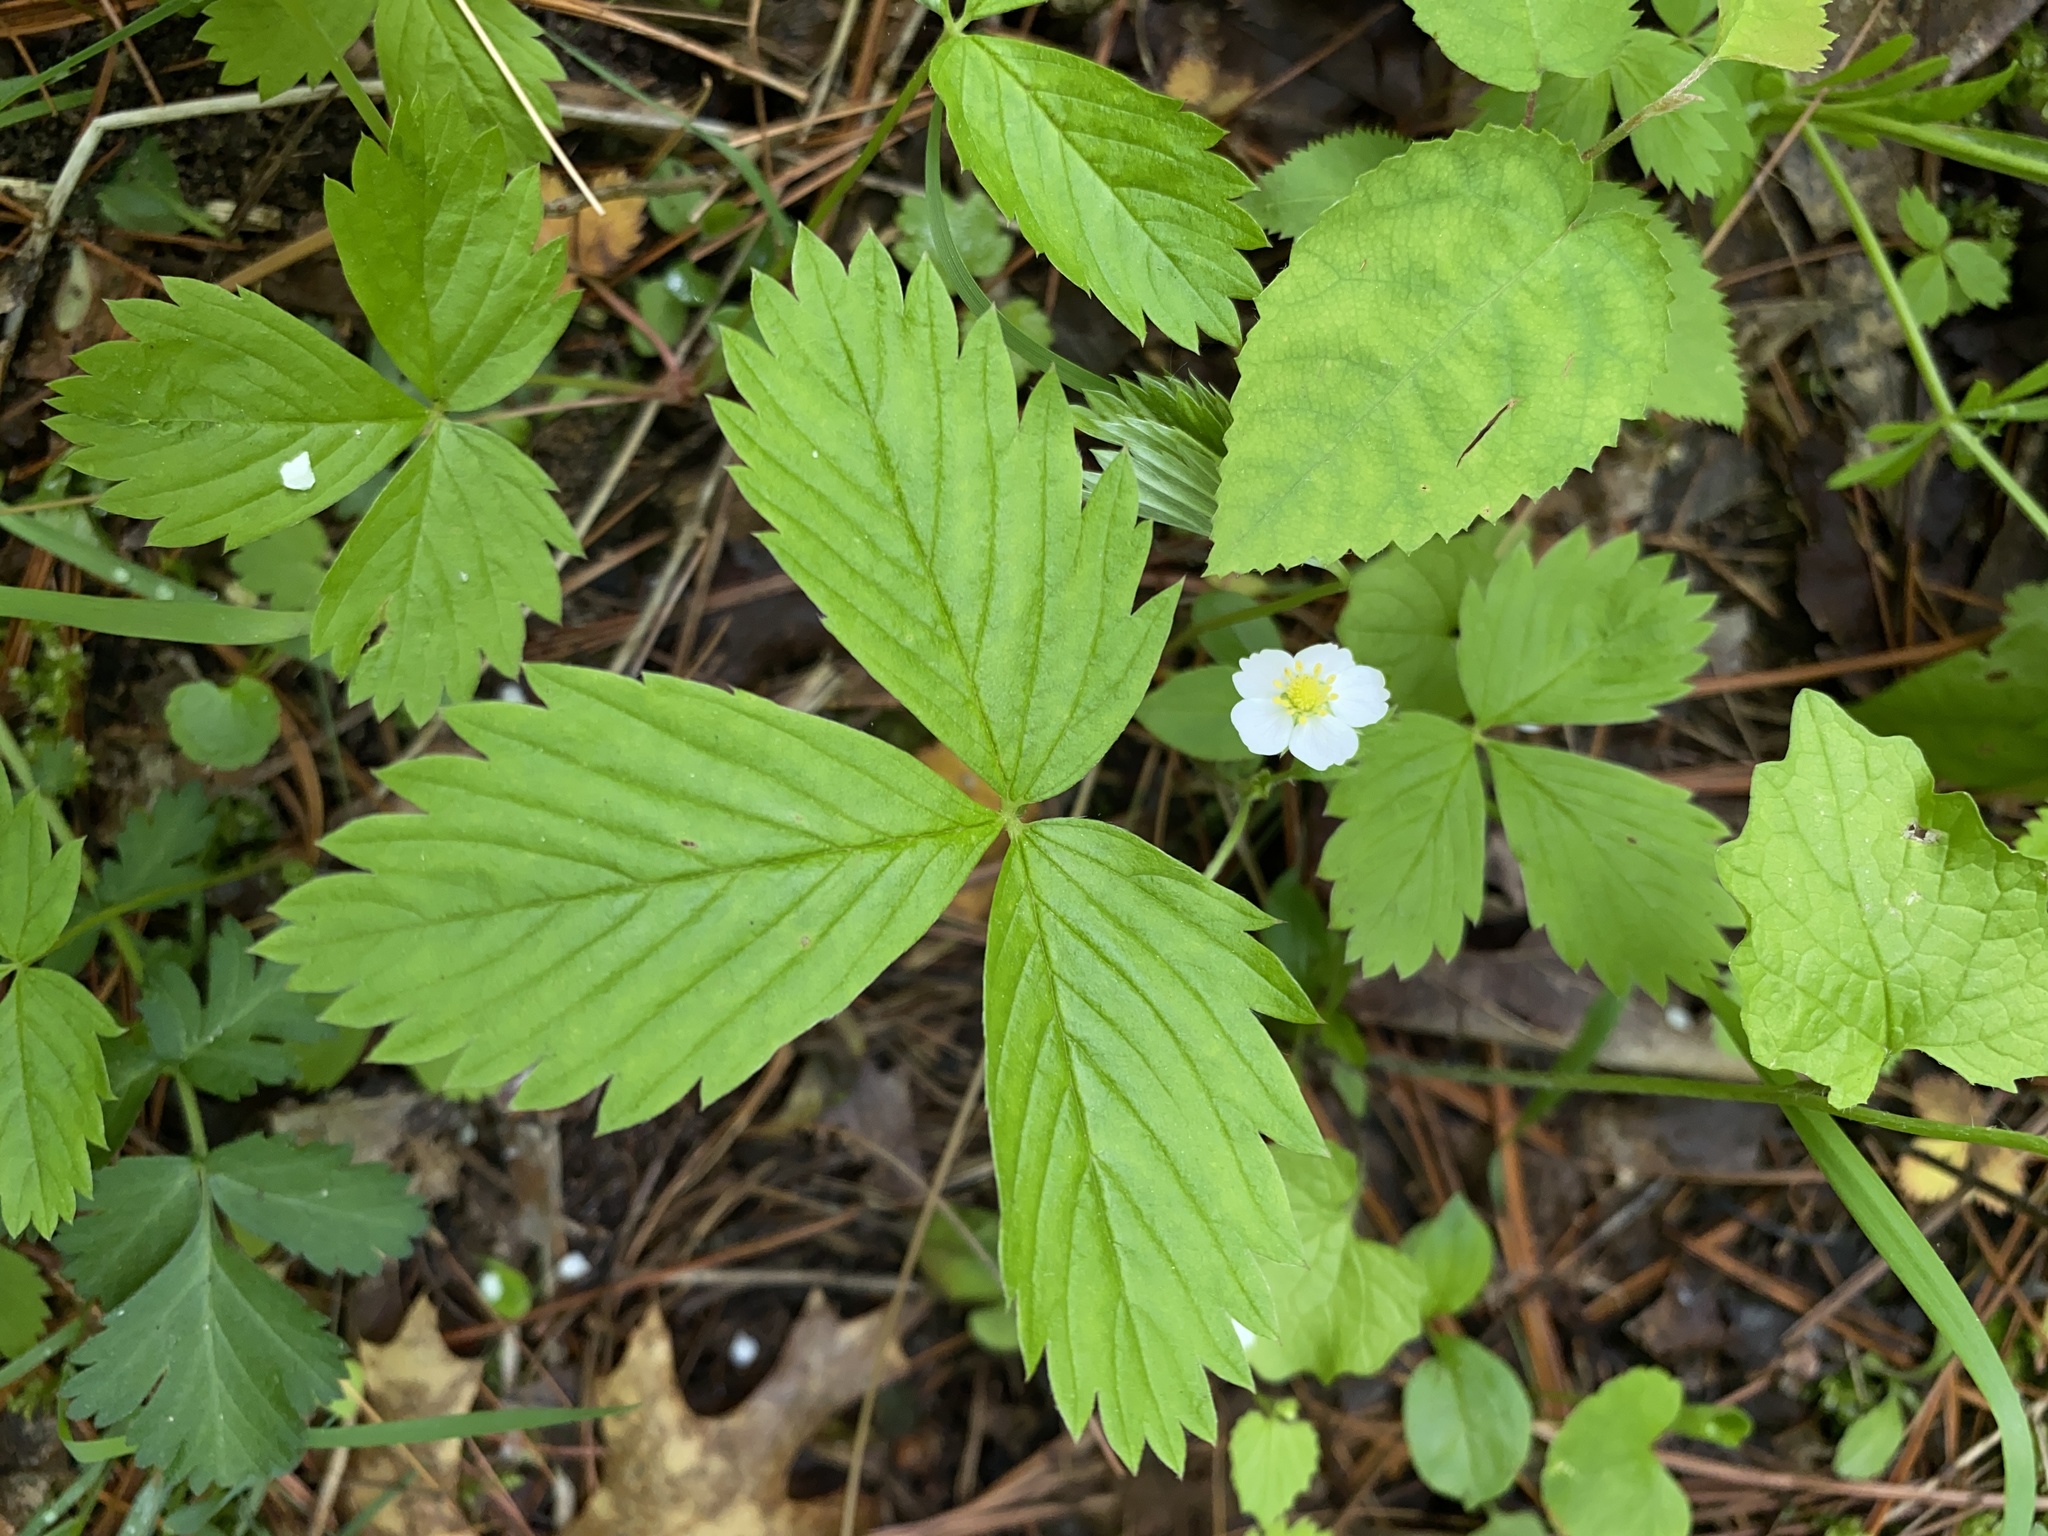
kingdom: Plantae
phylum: Tracheophyta
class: Magnoliopsida
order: Rosales
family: Rosaceae
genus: Fragaria
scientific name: Fragaria vesca
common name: Wild strawberry
